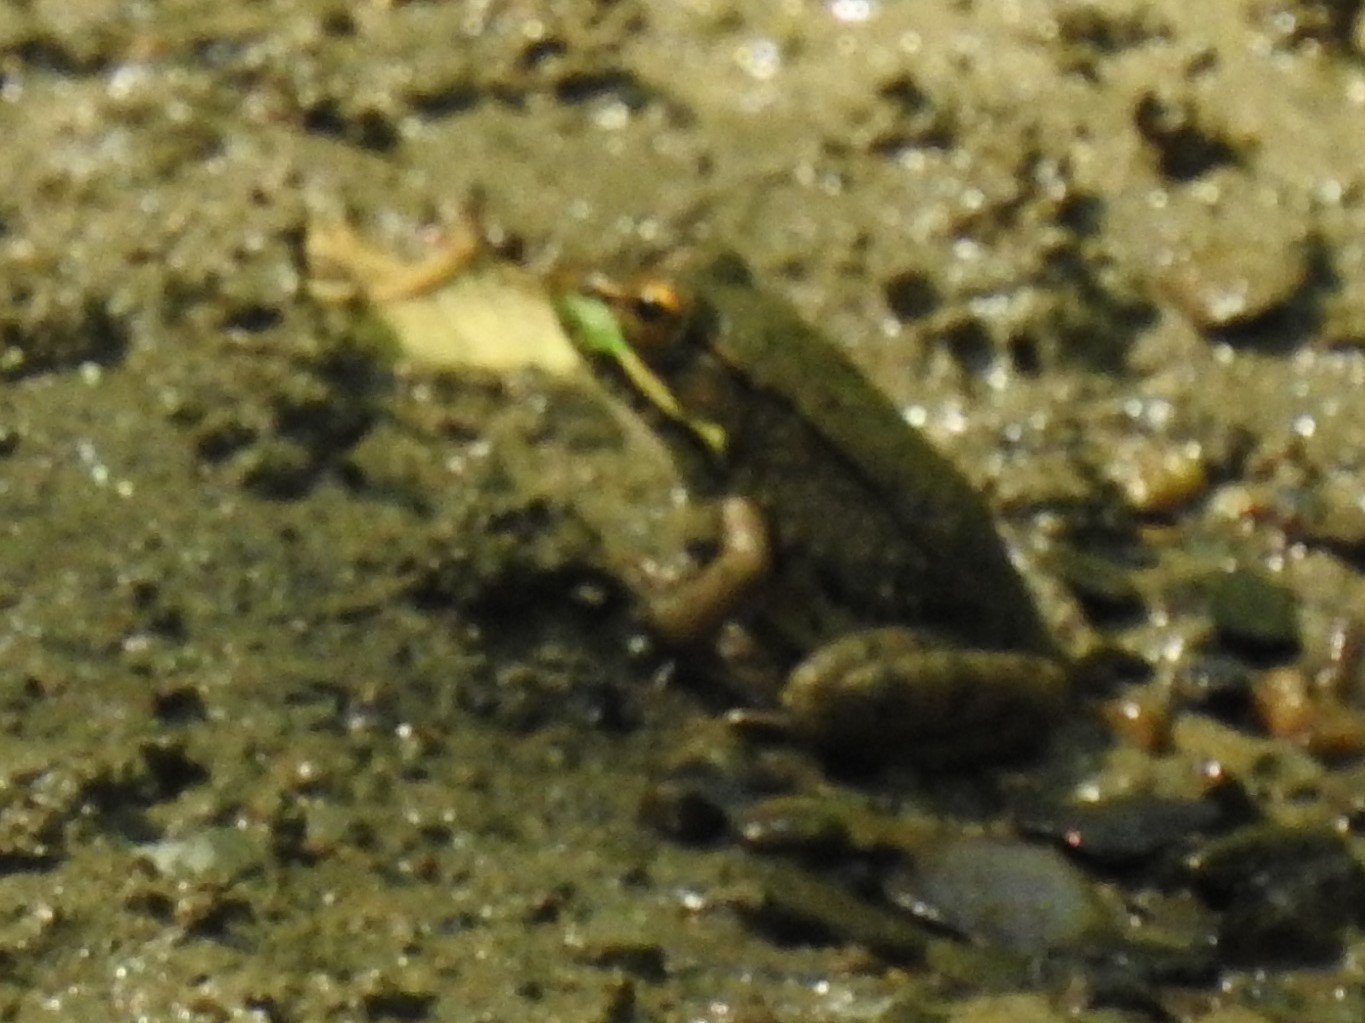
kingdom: Animalia
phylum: Chordata
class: Amphibia
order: Anura
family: Ranidae
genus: Lithobates
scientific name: Lithobates clamitans
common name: Green frog
